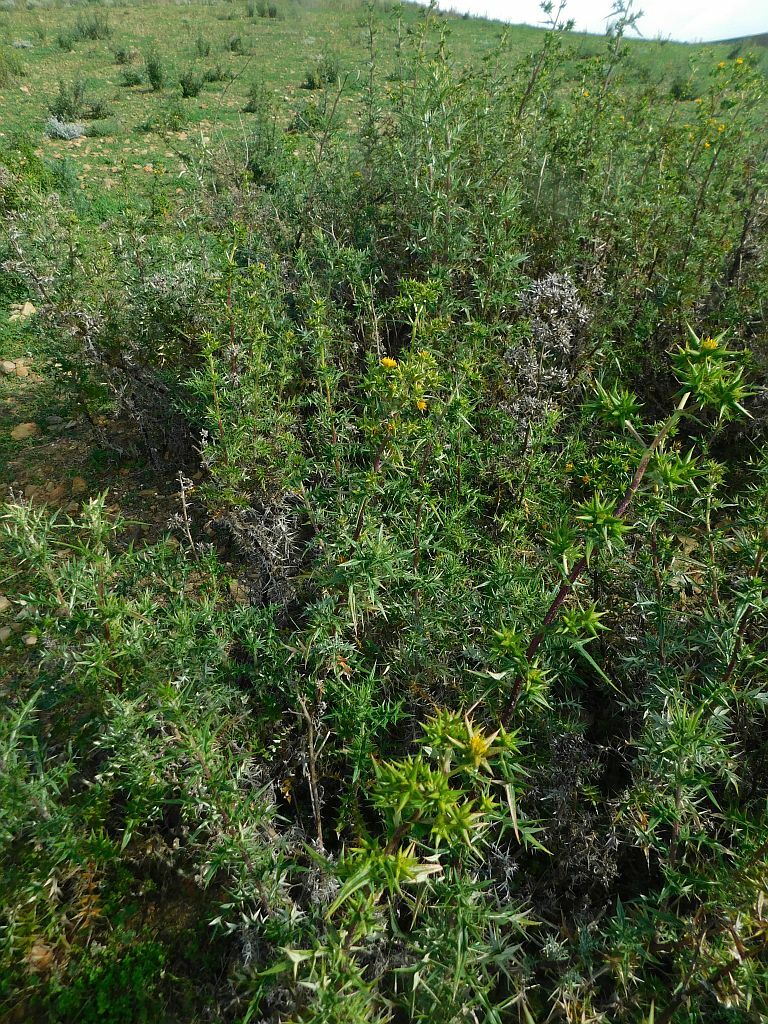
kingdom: Plantae
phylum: Tracheophyta
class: Magnoliopsida
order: Asterales
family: Asteraceae
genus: Berkheya
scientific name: Berkheya rigida
